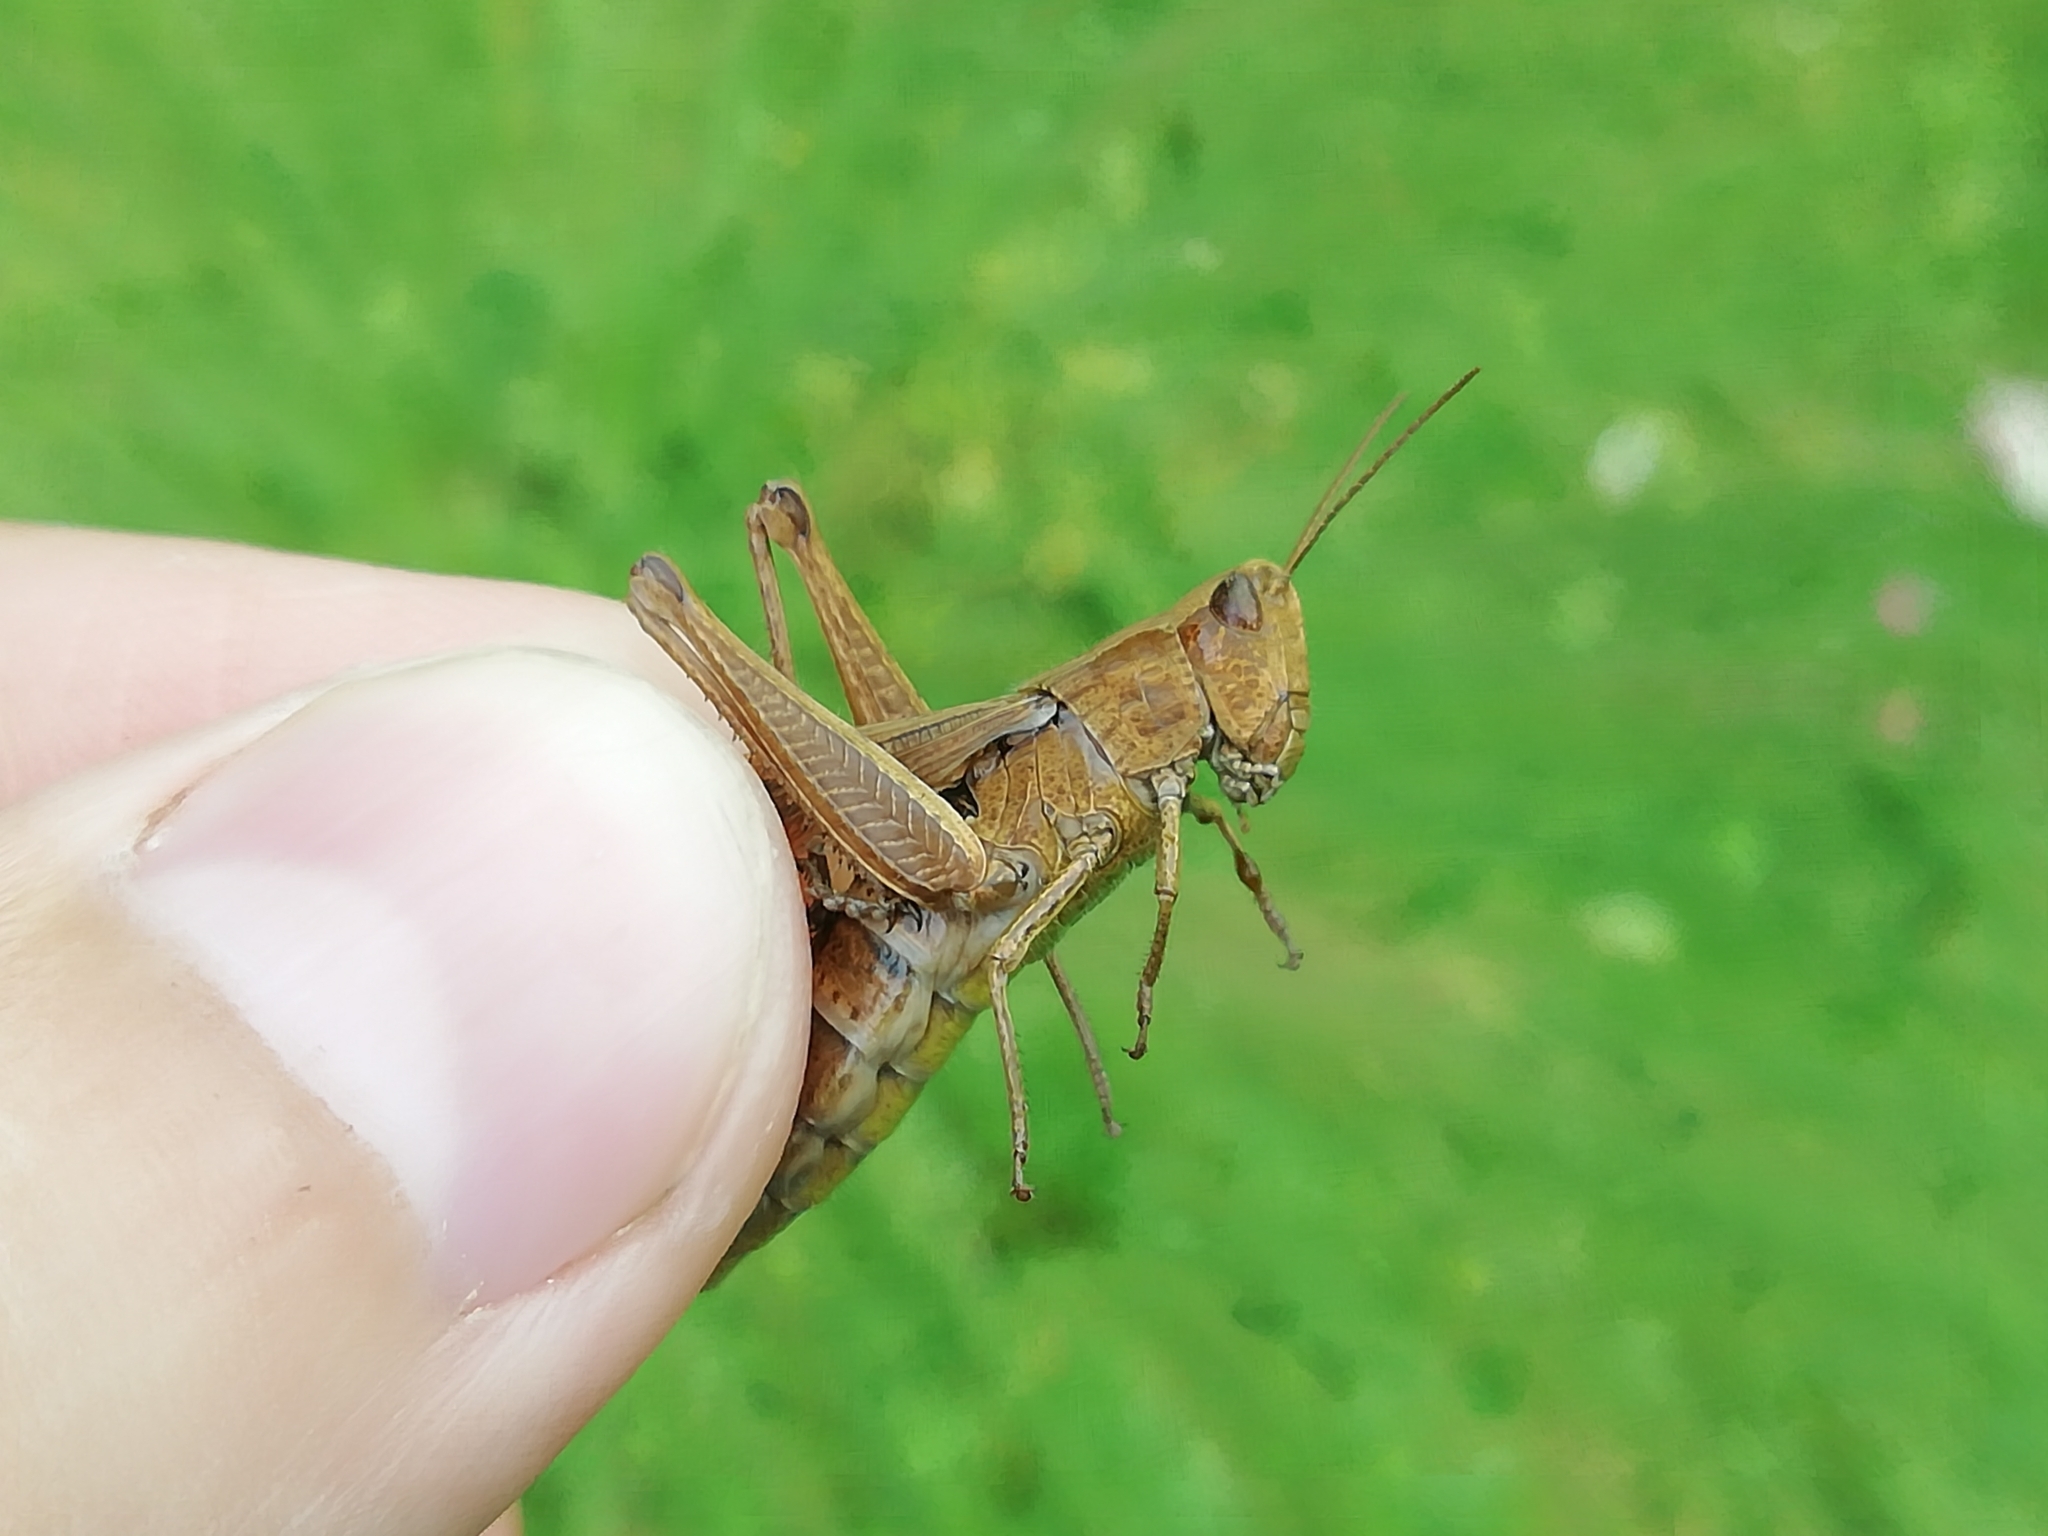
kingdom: Animalia
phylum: Arthropoda
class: Insecta
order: Orthoptera
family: Acrididae
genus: Chorthippus
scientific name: Chorthippus dorsatus
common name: Steppe grasshopper
